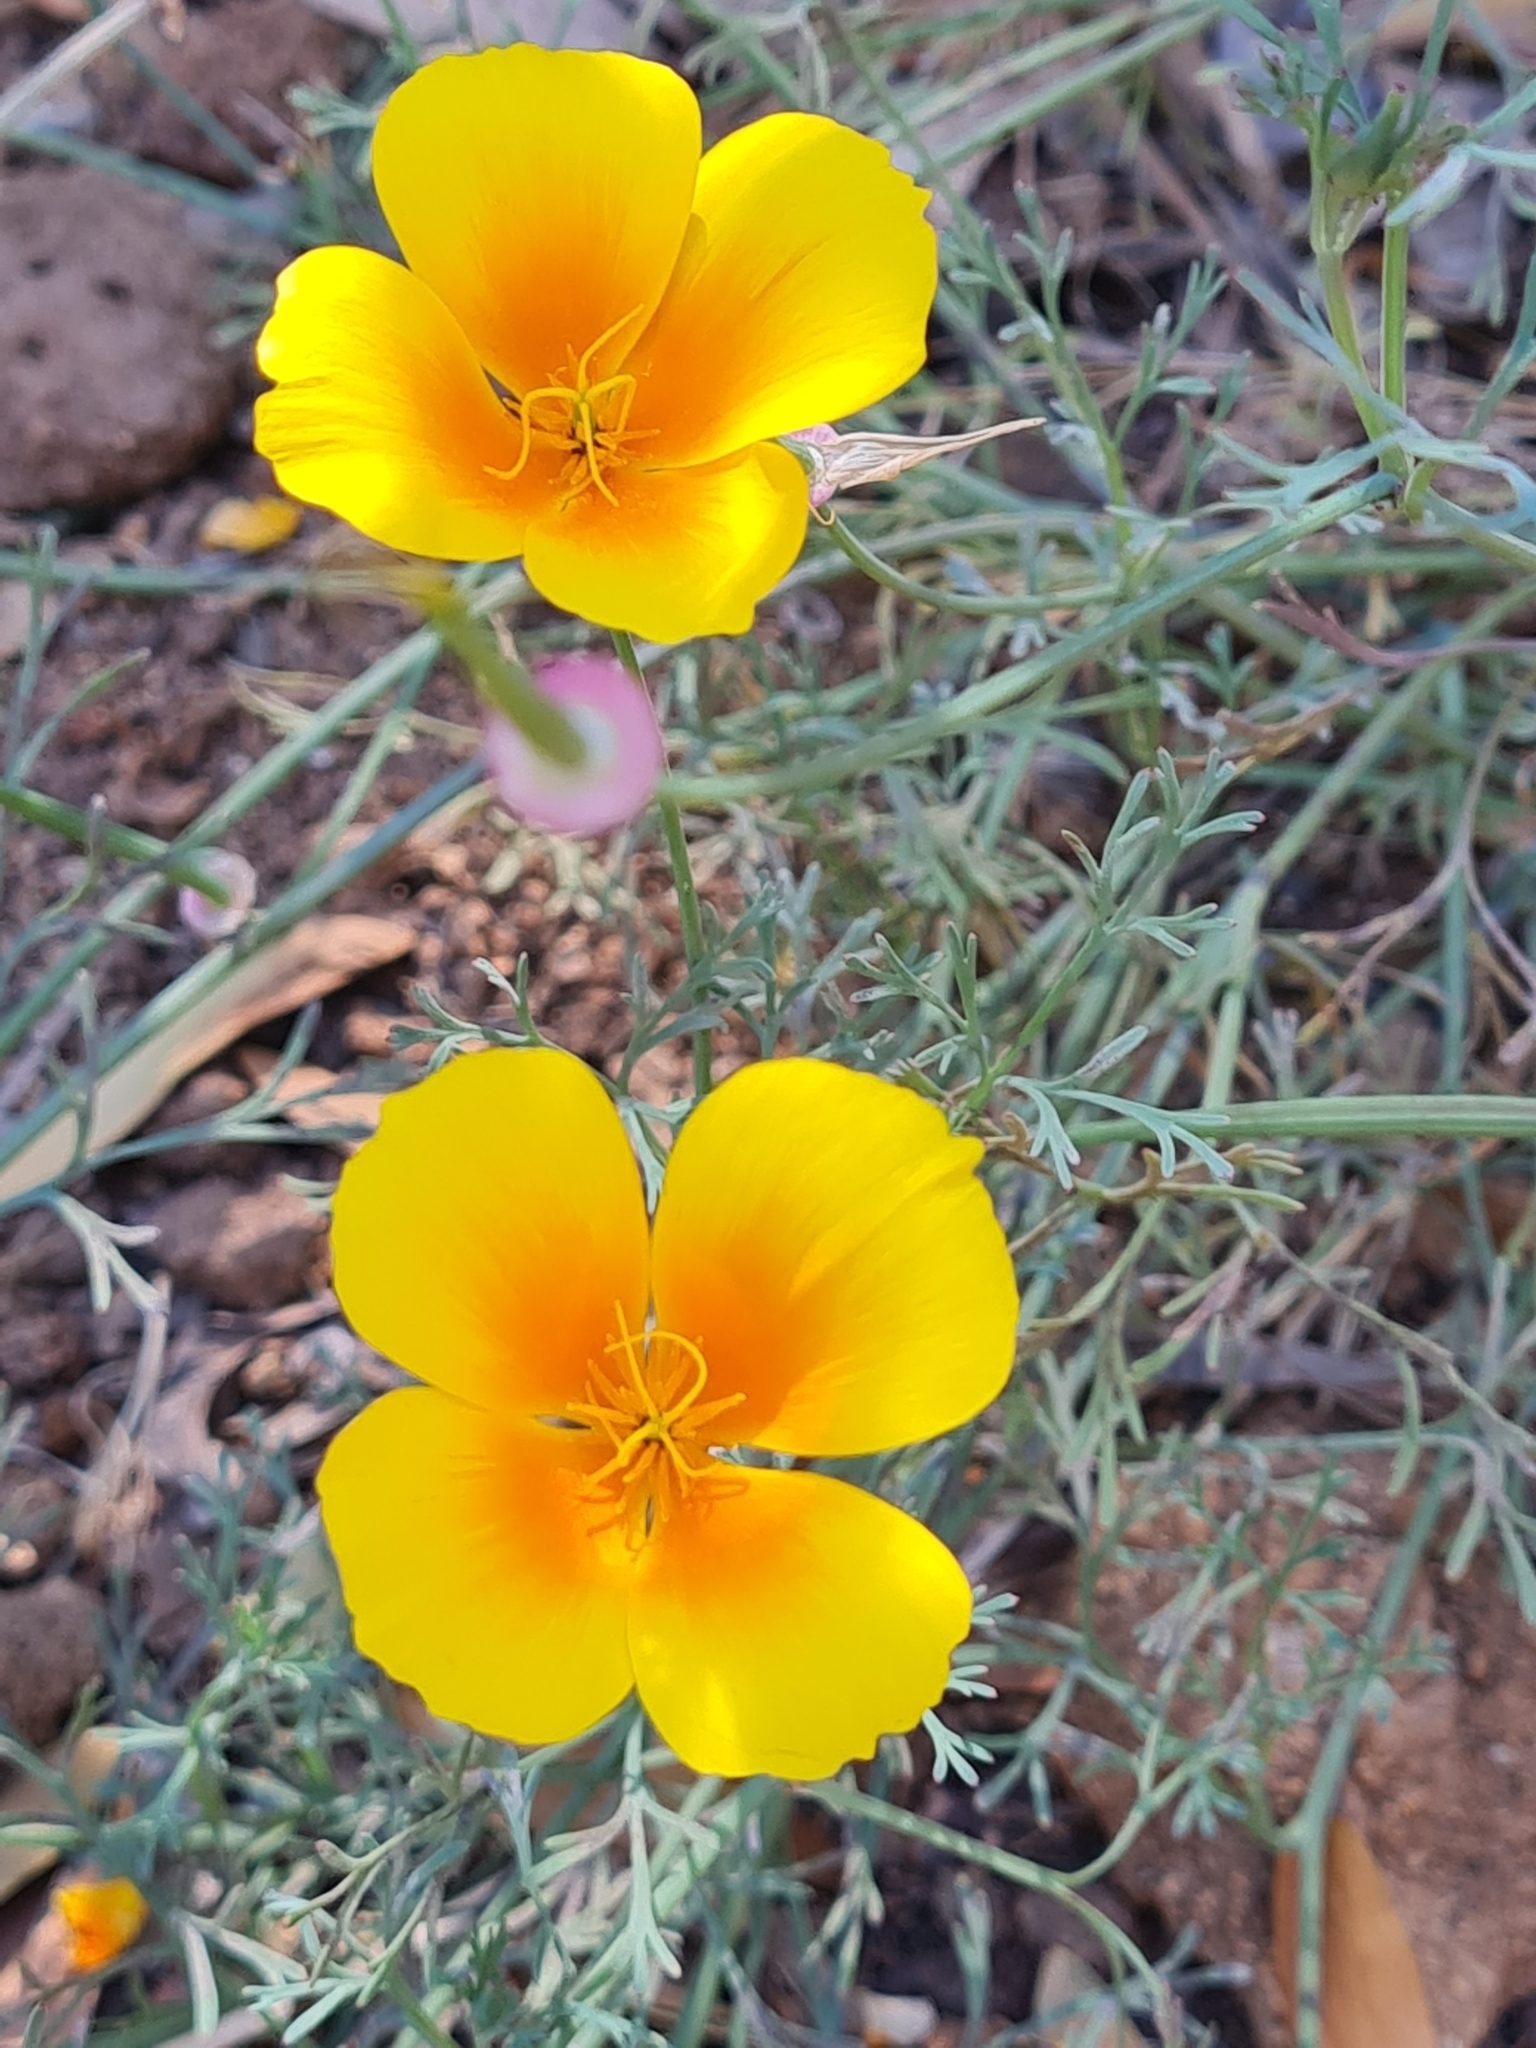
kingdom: Plantae
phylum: Tracheophyta
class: Magnoliopsida
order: Ranunculales
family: Papaveraceae
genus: Eschscholzia
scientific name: Eschscholzia californica
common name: California poppy
